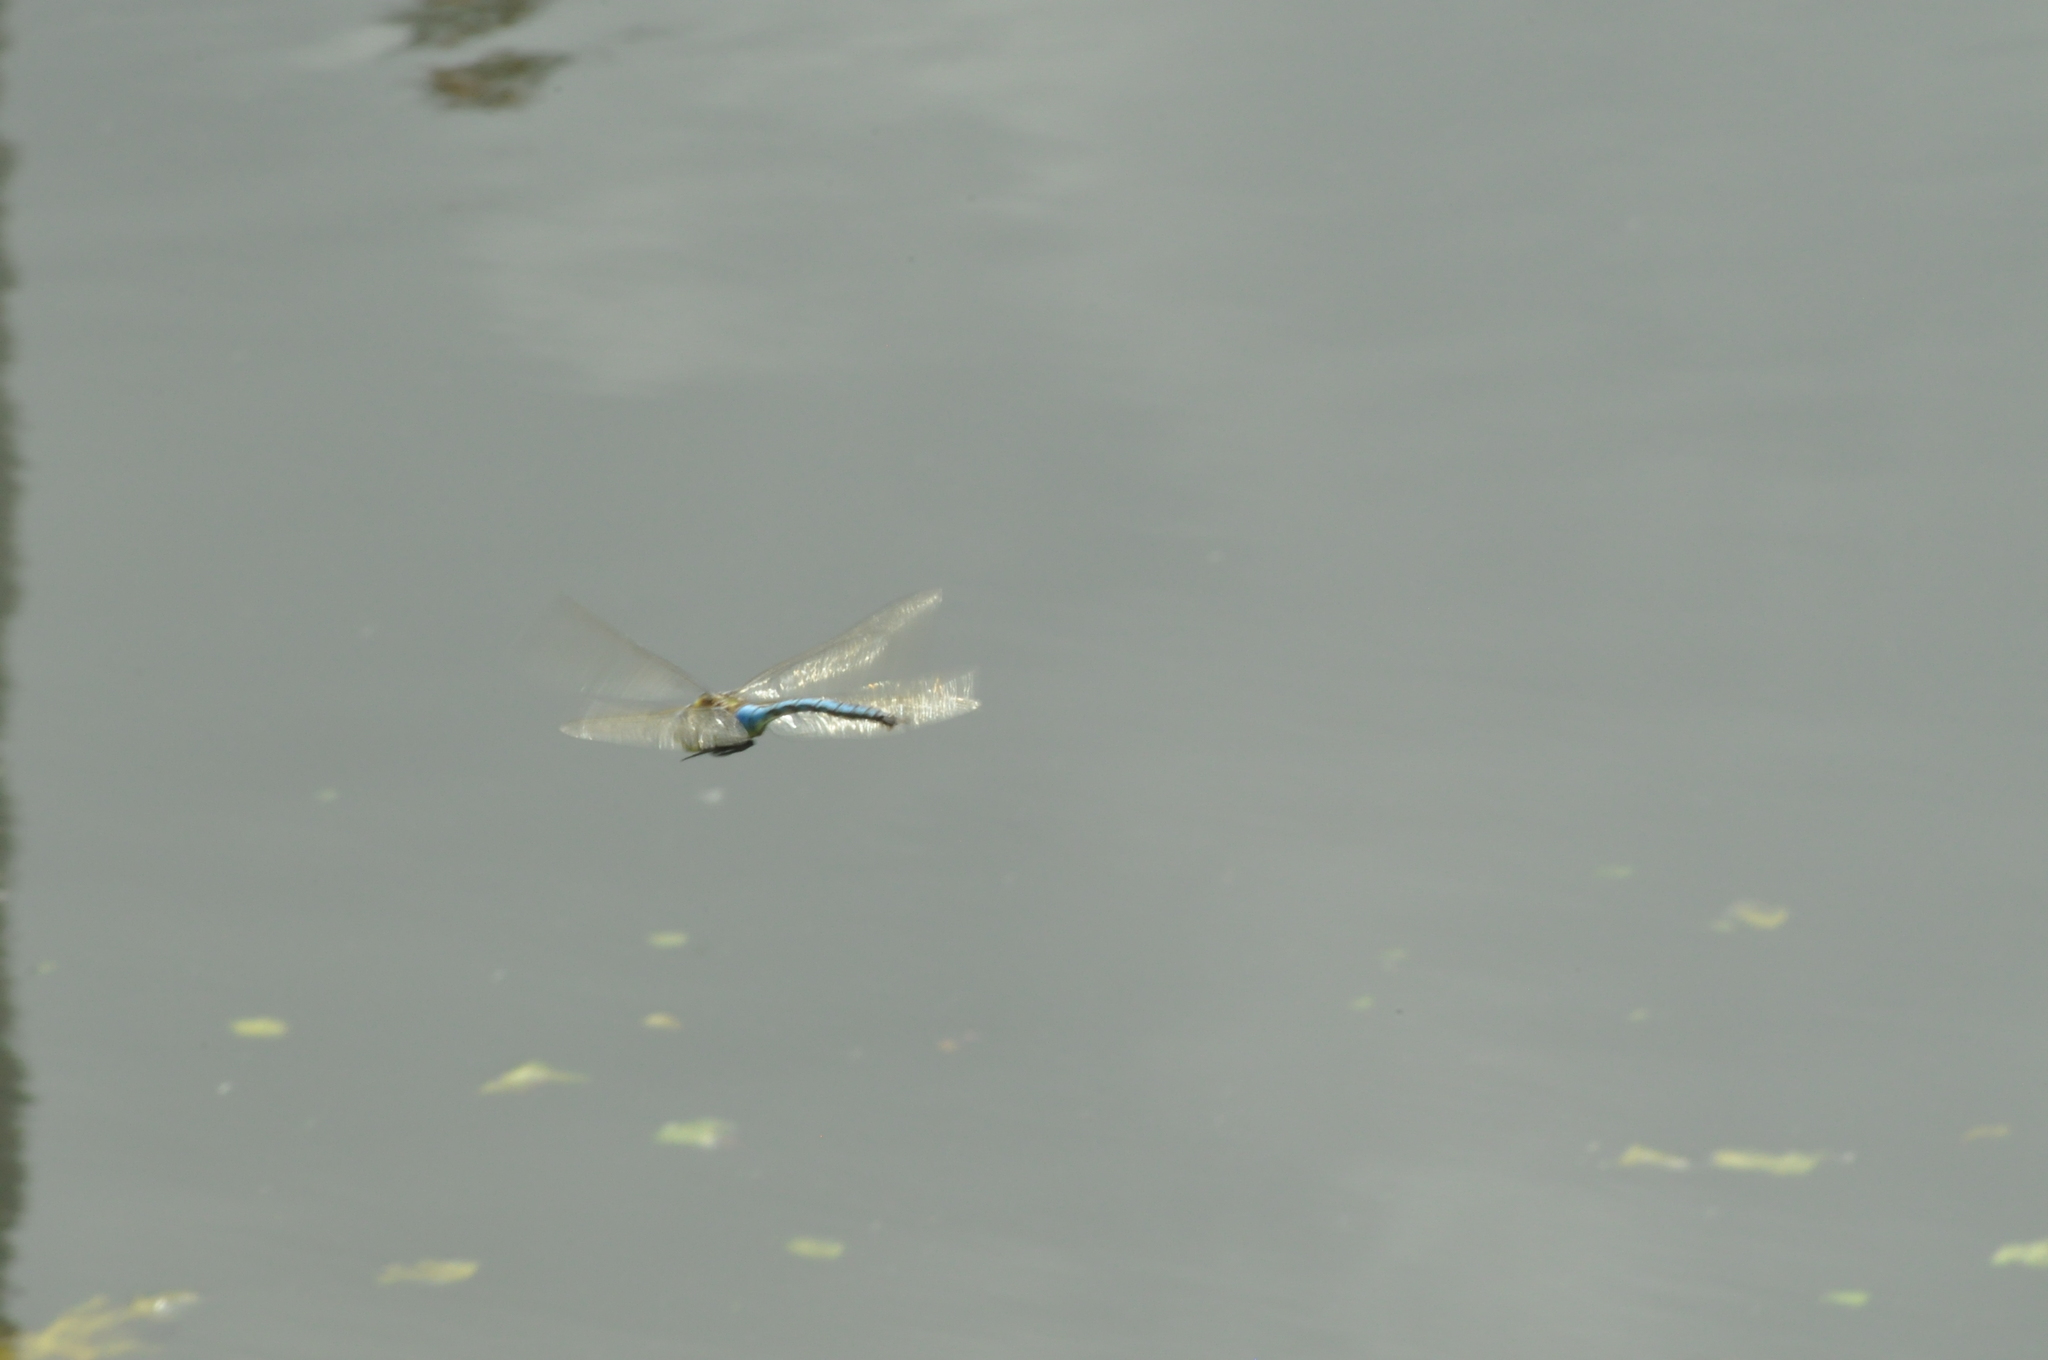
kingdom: Animalia
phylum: Arthropoda
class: Insecta
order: Odonata
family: Aeshnidae
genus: Anax
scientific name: Anax imperator
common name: Emperor dragonfly
